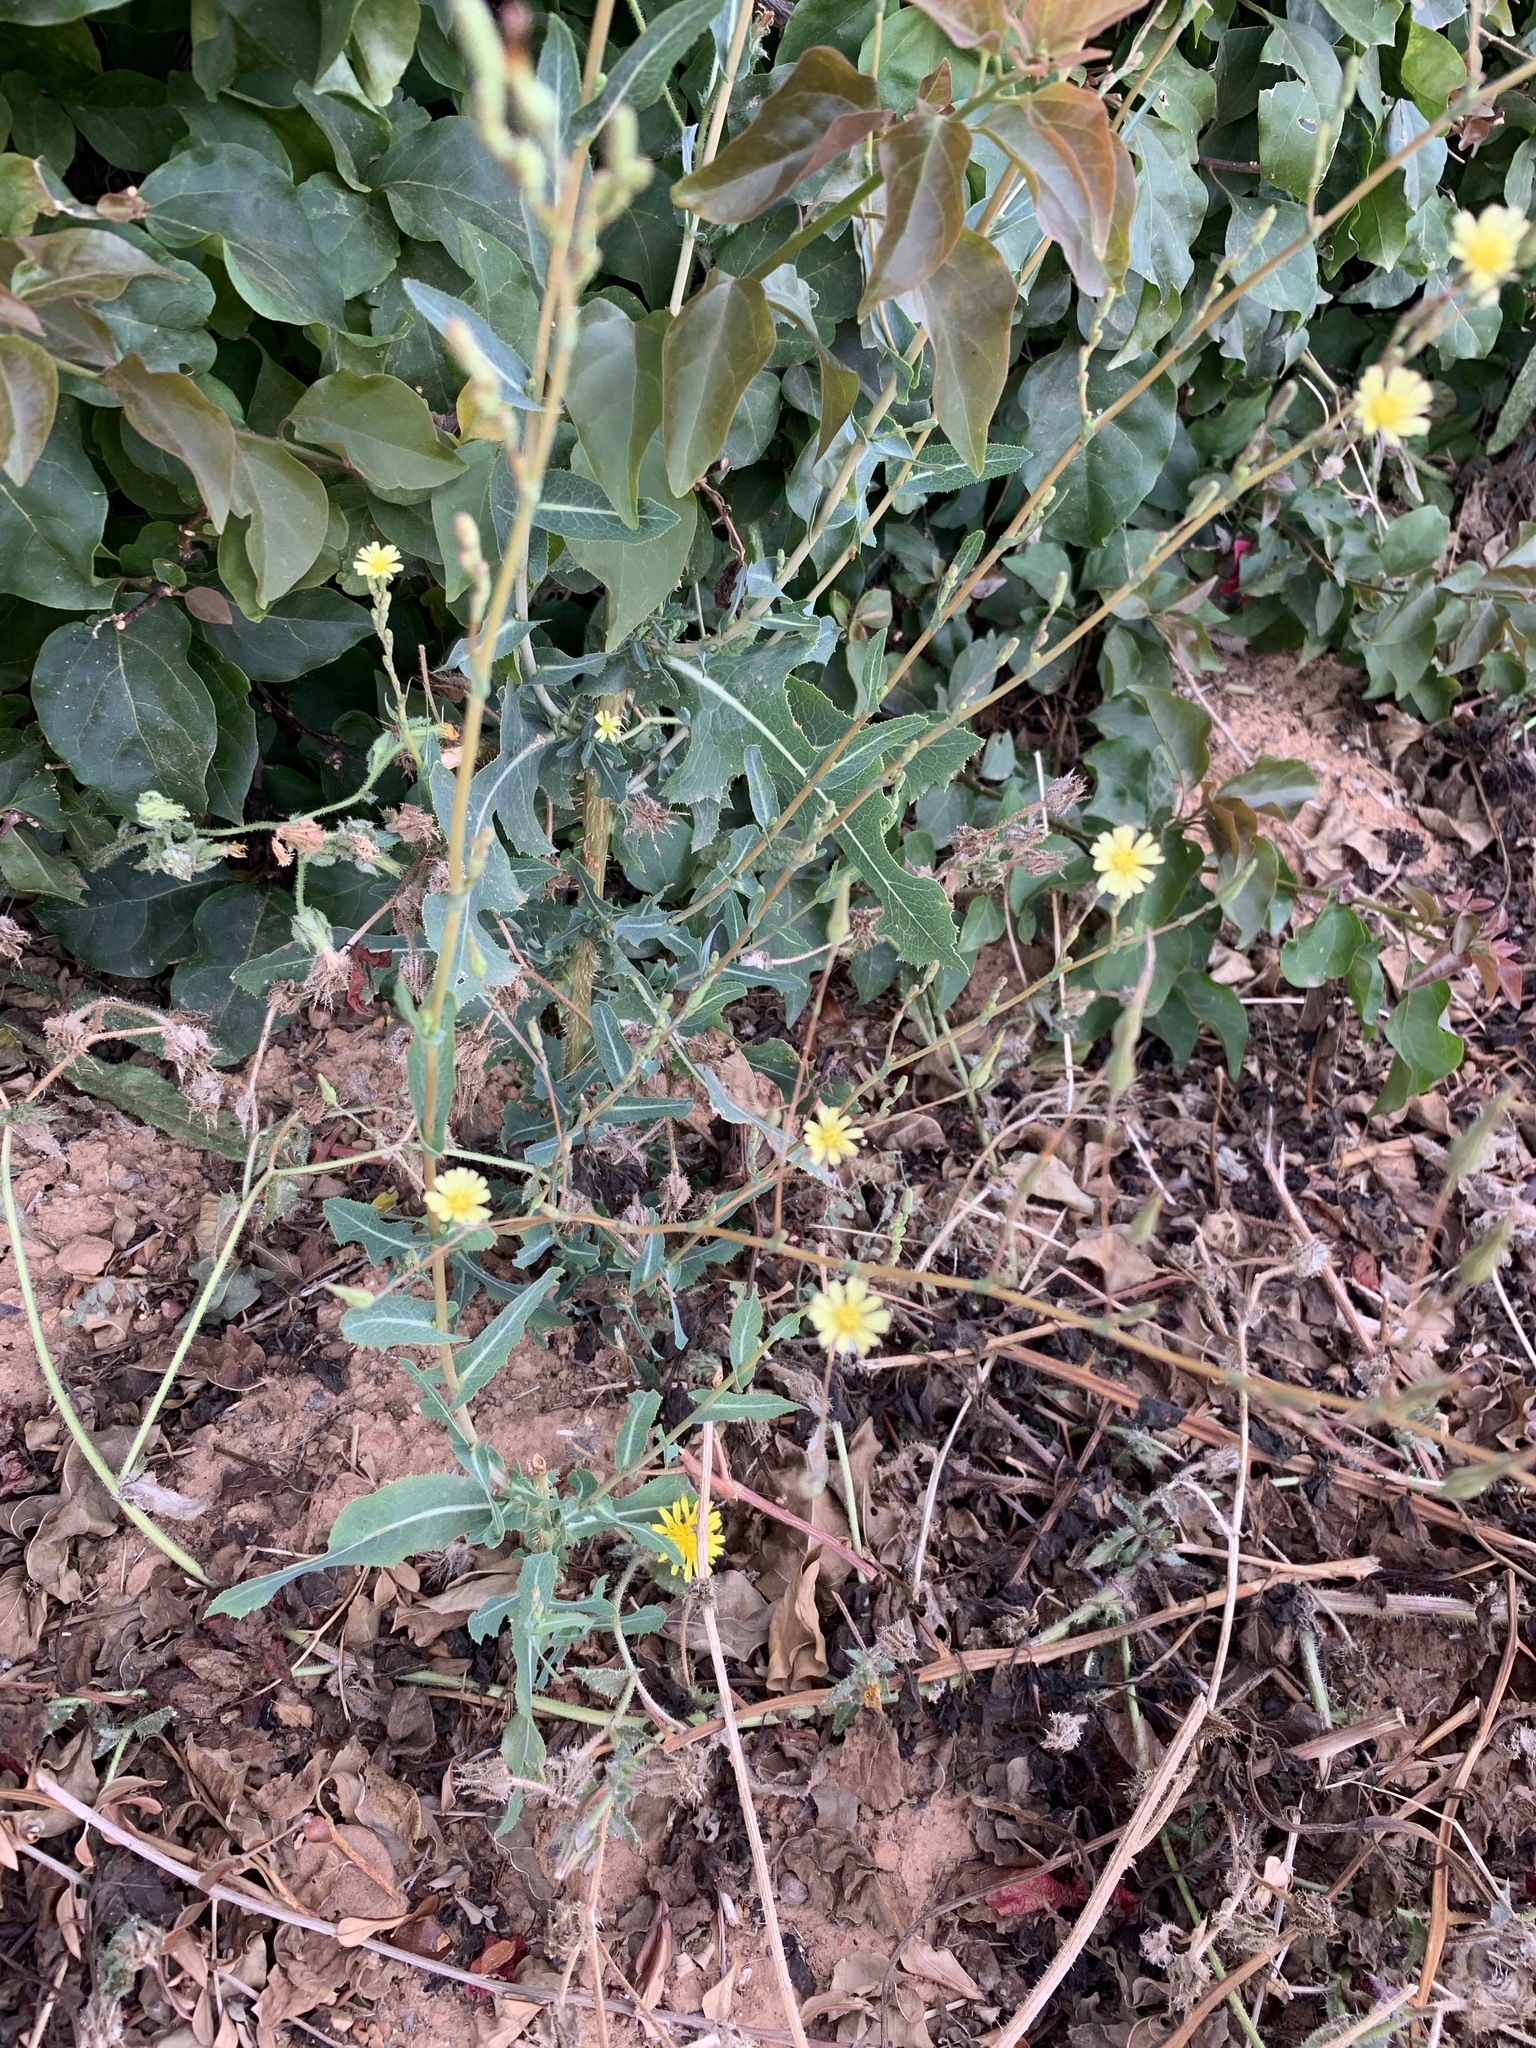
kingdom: Plantae
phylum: Tracheophyta
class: Magnoliopsida
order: Asterales
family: Asteraceae
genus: Lactuca
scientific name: Lactuca serriola
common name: Prickly lettuce
